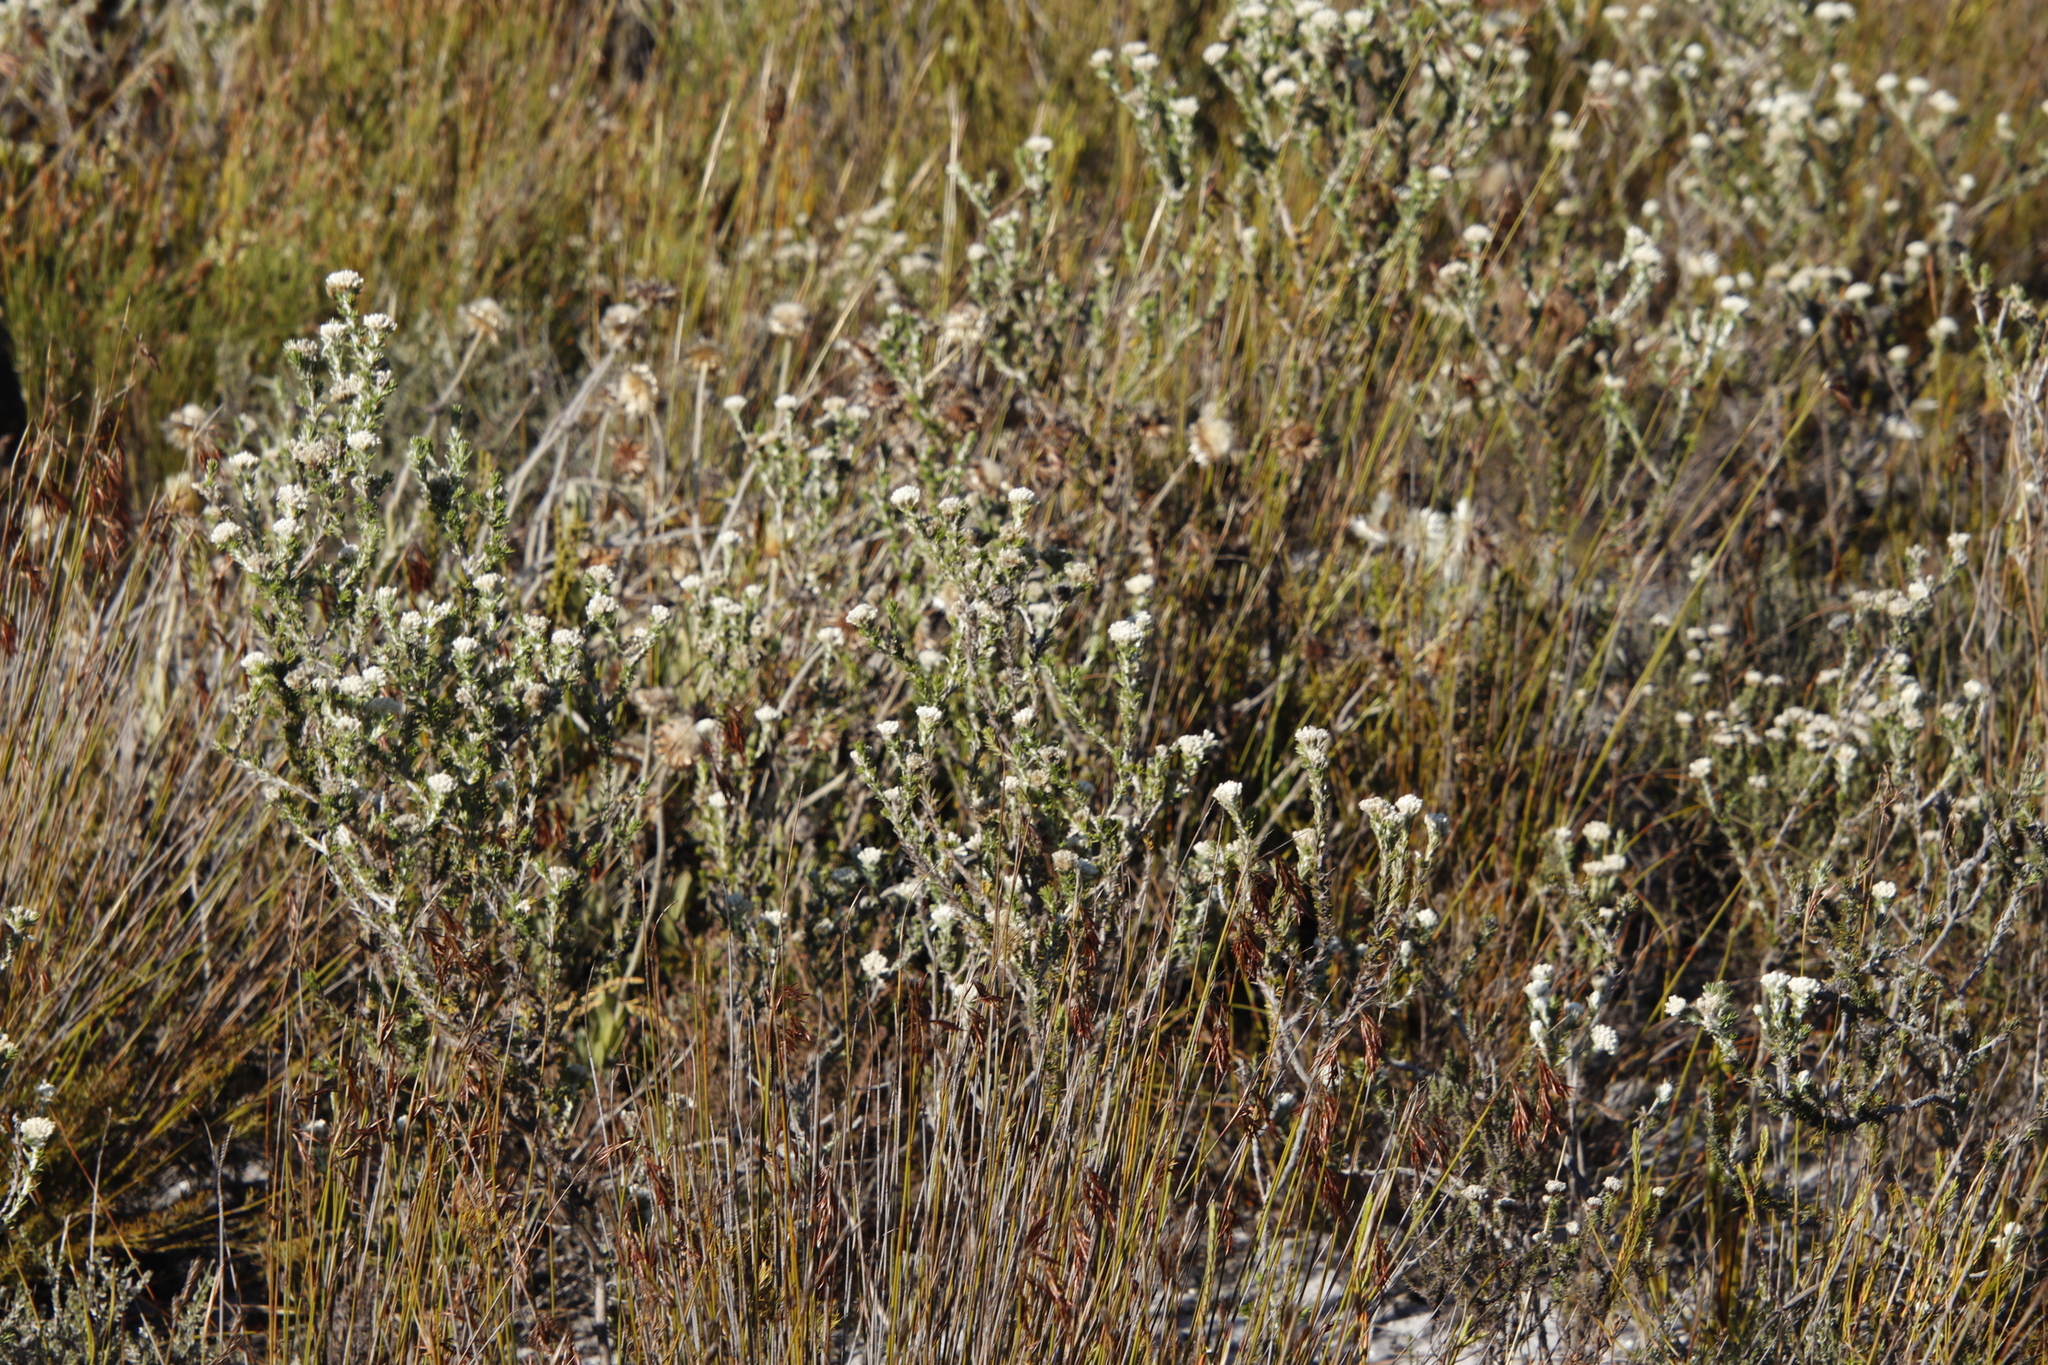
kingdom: Plantae
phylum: Tracheophyta
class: Magnoliopsida
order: Asterales
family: Asteraceae
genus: Metalasia
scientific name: Metalasia compacta
